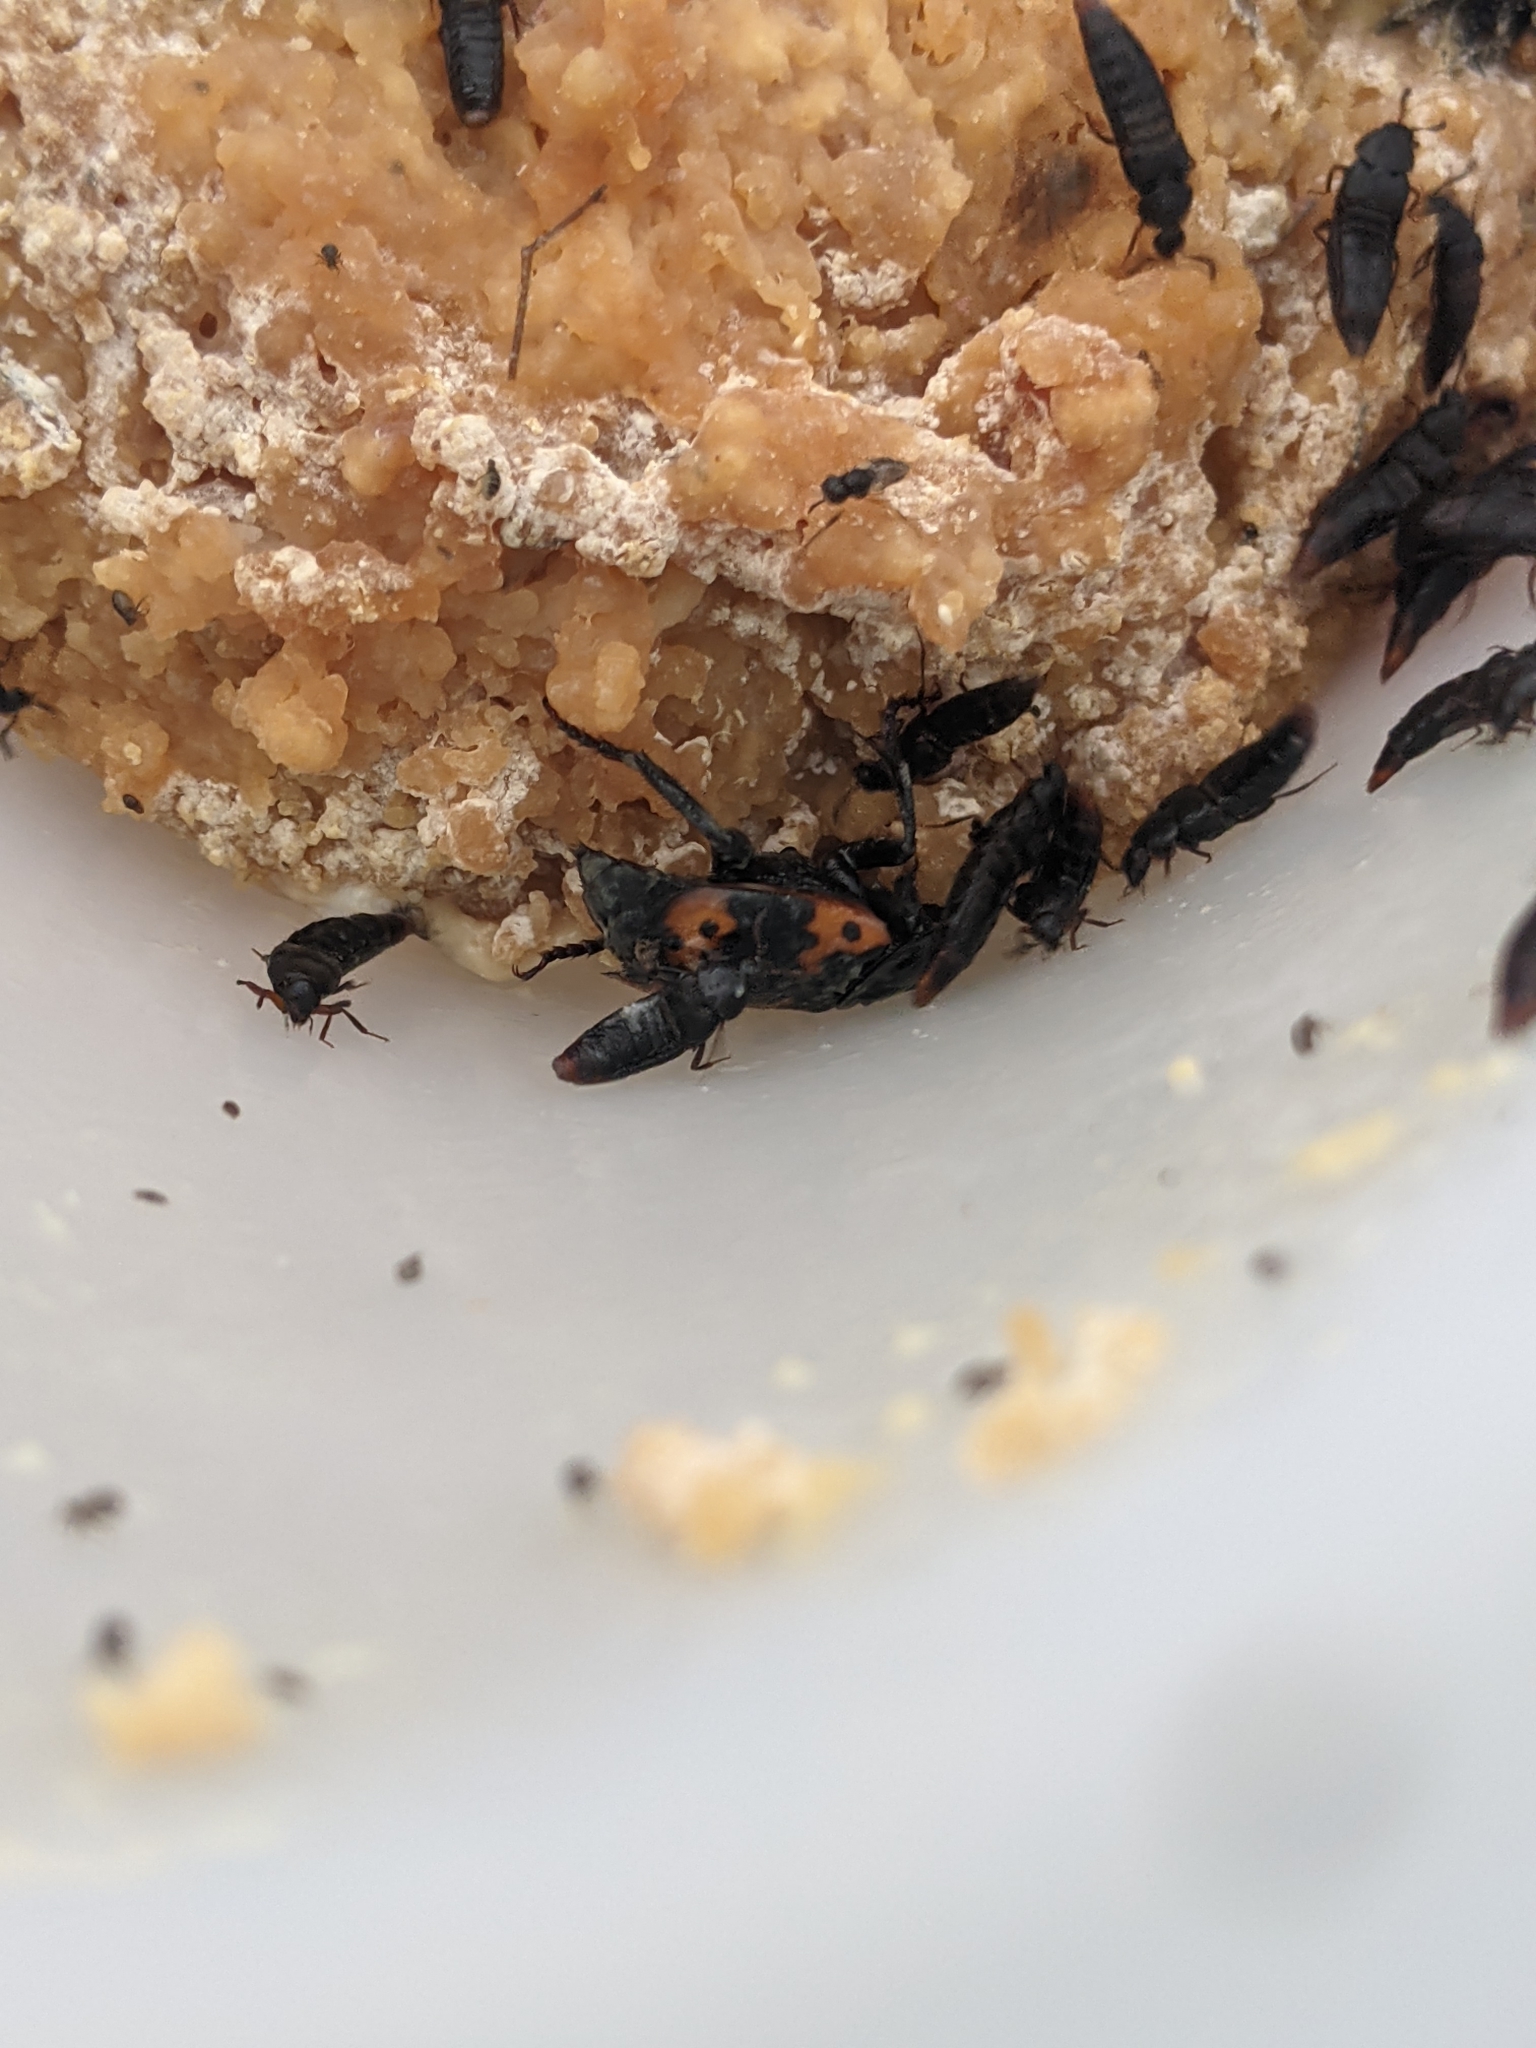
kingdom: Animalia
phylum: Arthropoda
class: Insecta
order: Coleoptera
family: Staphylinidae
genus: Nicrophorus
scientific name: Nicrophorus nepalensis
